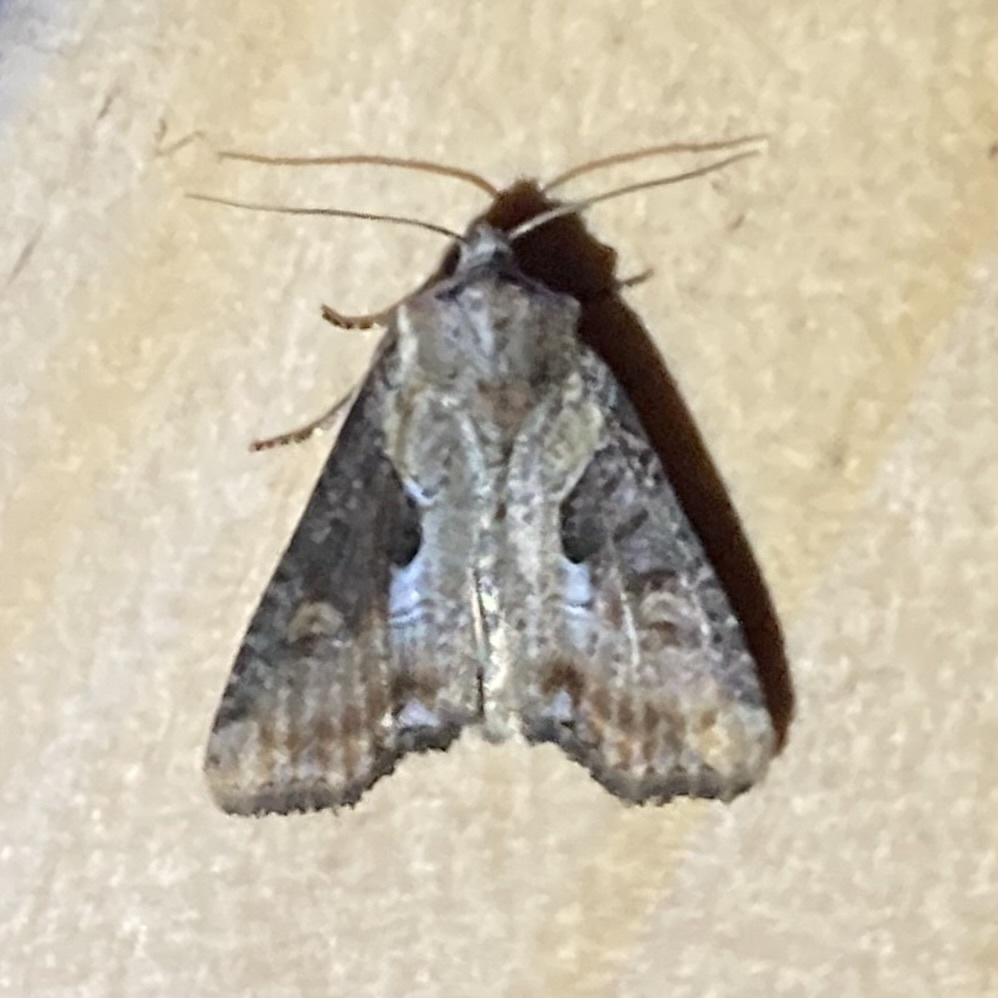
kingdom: Animalia
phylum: Arthropoda
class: Insecta
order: Lepidoptera
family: Noctuidae
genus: Lateroligia
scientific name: Lateroligia ophiogramma
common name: Double lobed
